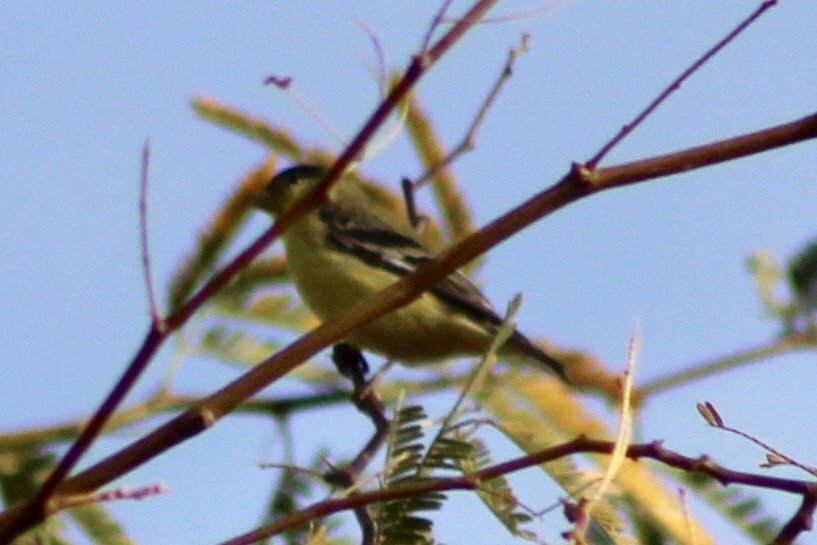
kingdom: Animalia
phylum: Chordata
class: Aves
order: Passeriformes
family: Fringillidae
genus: Spinus
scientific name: Spinus psaltria
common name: Lesser goldfinch
